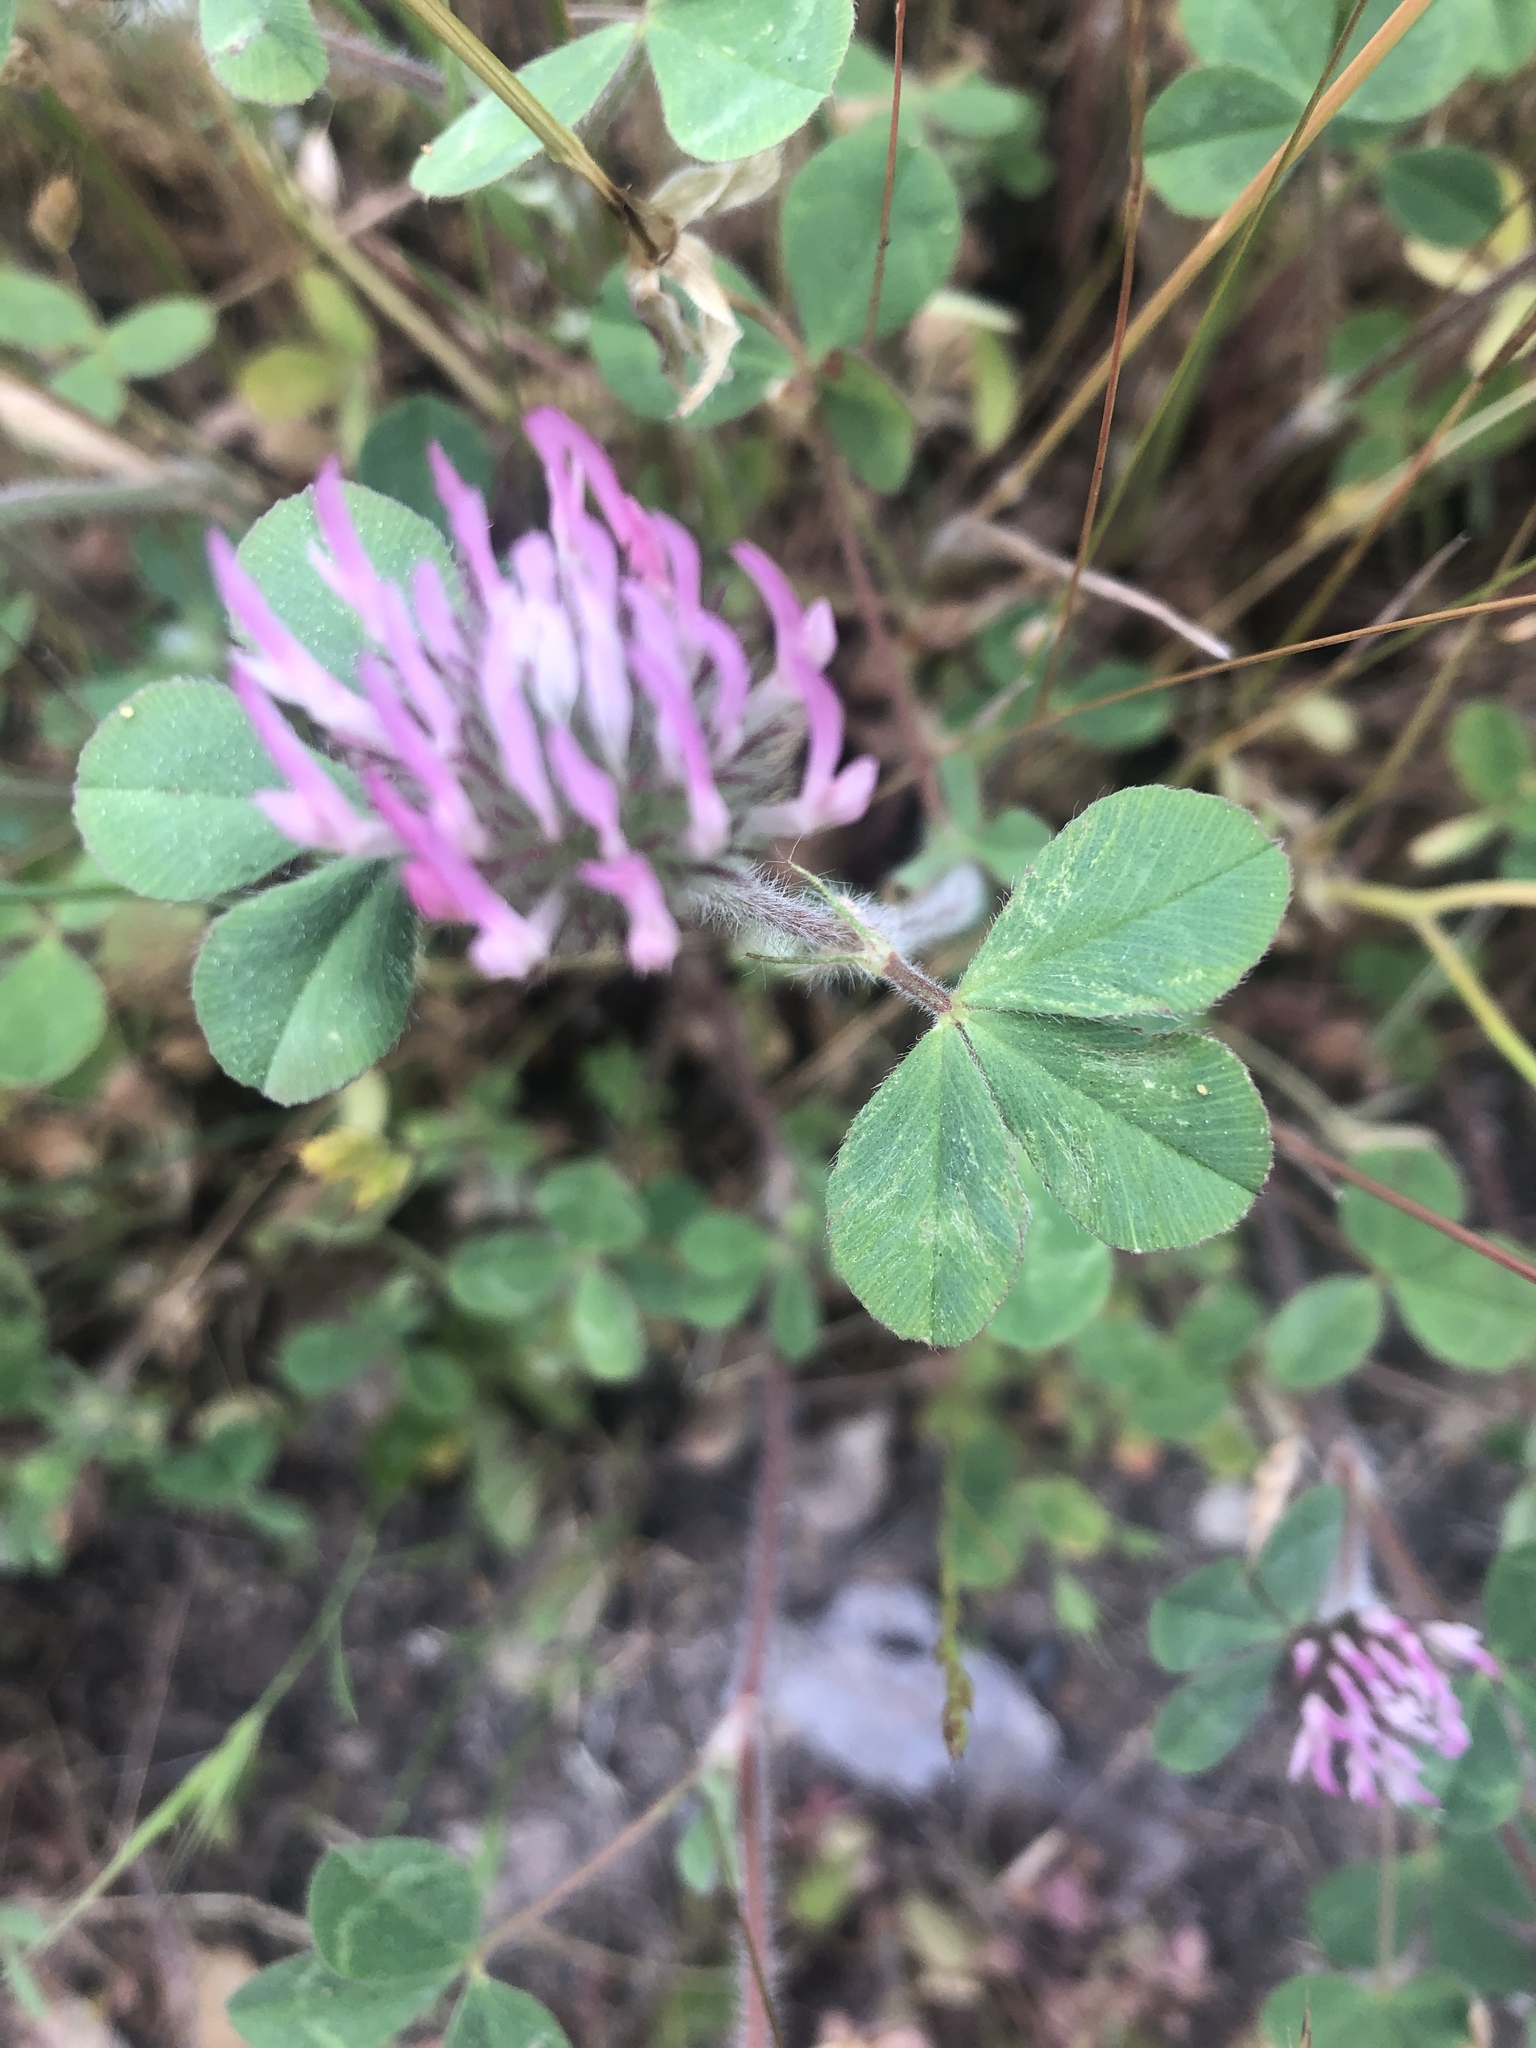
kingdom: Plantae
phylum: Tracheophyta
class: Magnoliopsida
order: Fabales
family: Fabaceae
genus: Trifolium
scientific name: Trifolium hirtum
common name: Rose clover
